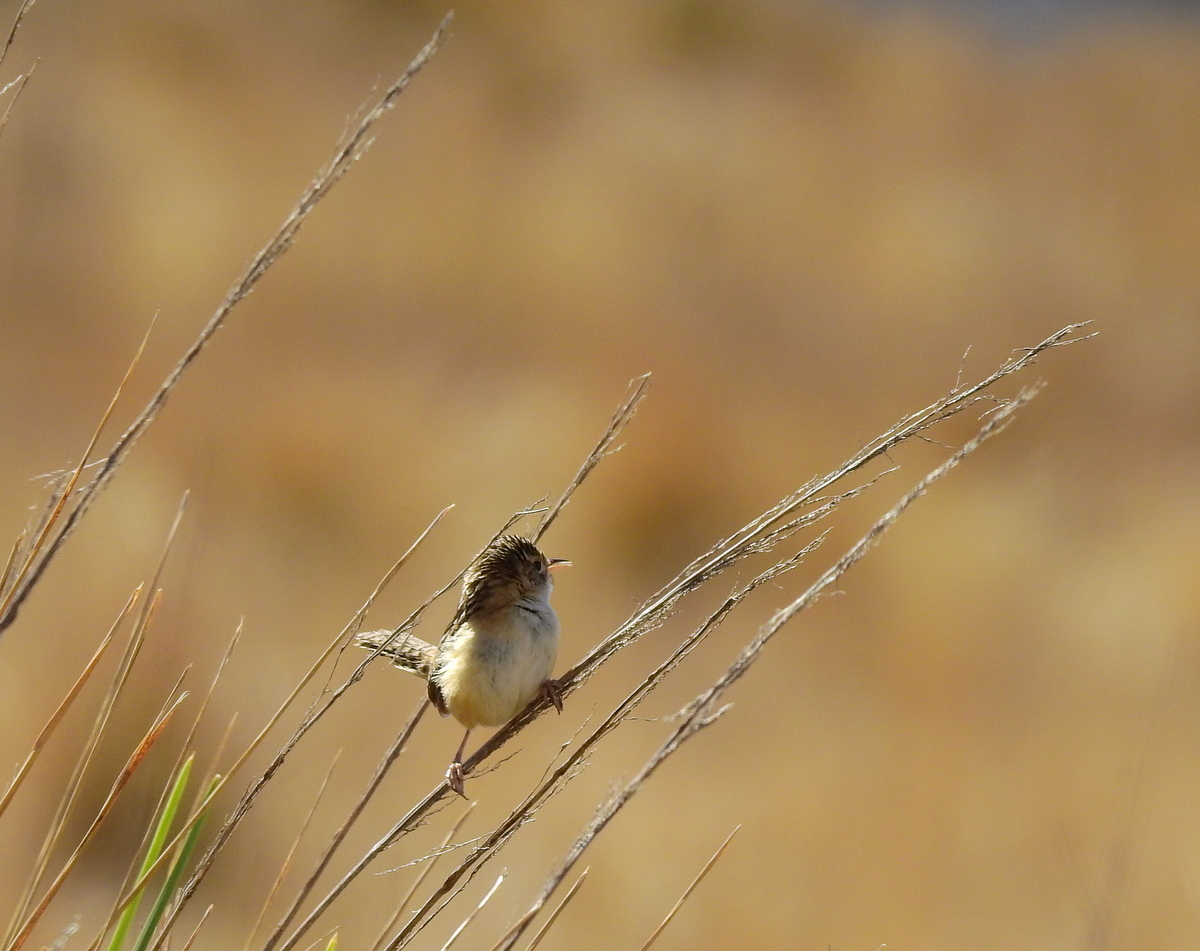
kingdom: Animalia
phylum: Chordata
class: Aves
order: Passeriformes
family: Troglodytidae
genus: Cistothorus
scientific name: Cistothorus platensis
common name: Sedge wren
